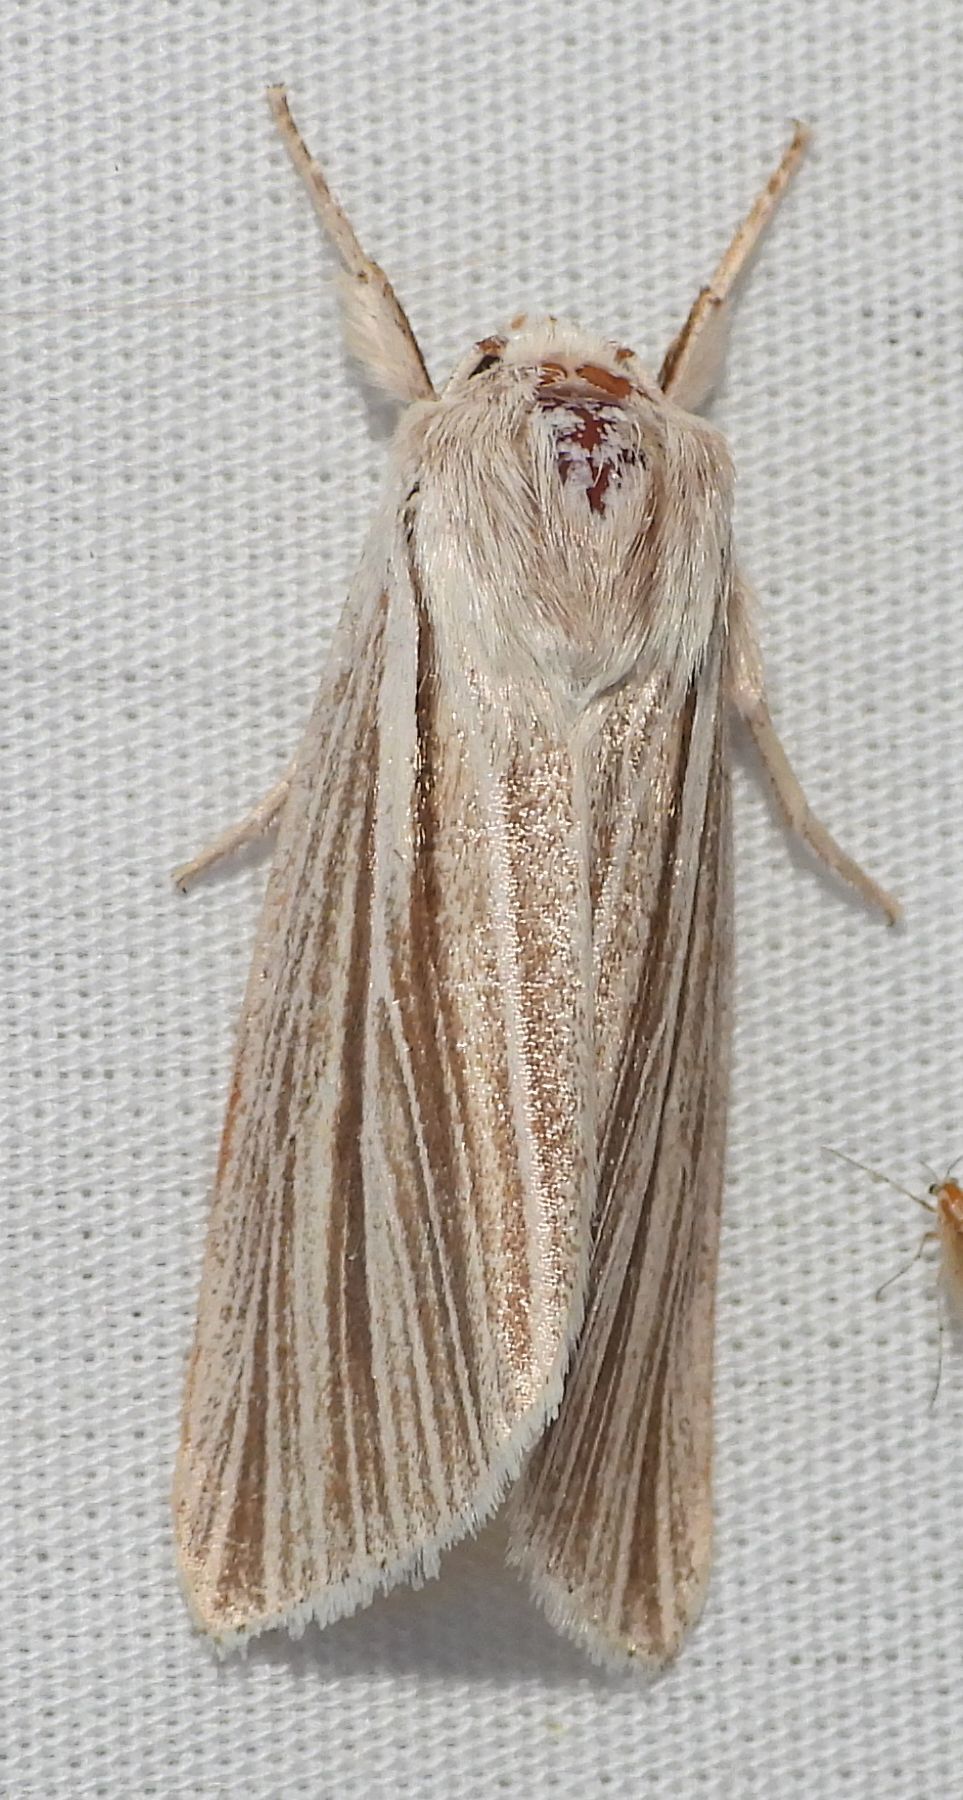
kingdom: Animalia
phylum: Arthropoda
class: Insecta
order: Lepidoptera
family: Noctuidae
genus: Acronicta
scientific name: Acronicta insularis
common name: Henry's marsh moth
